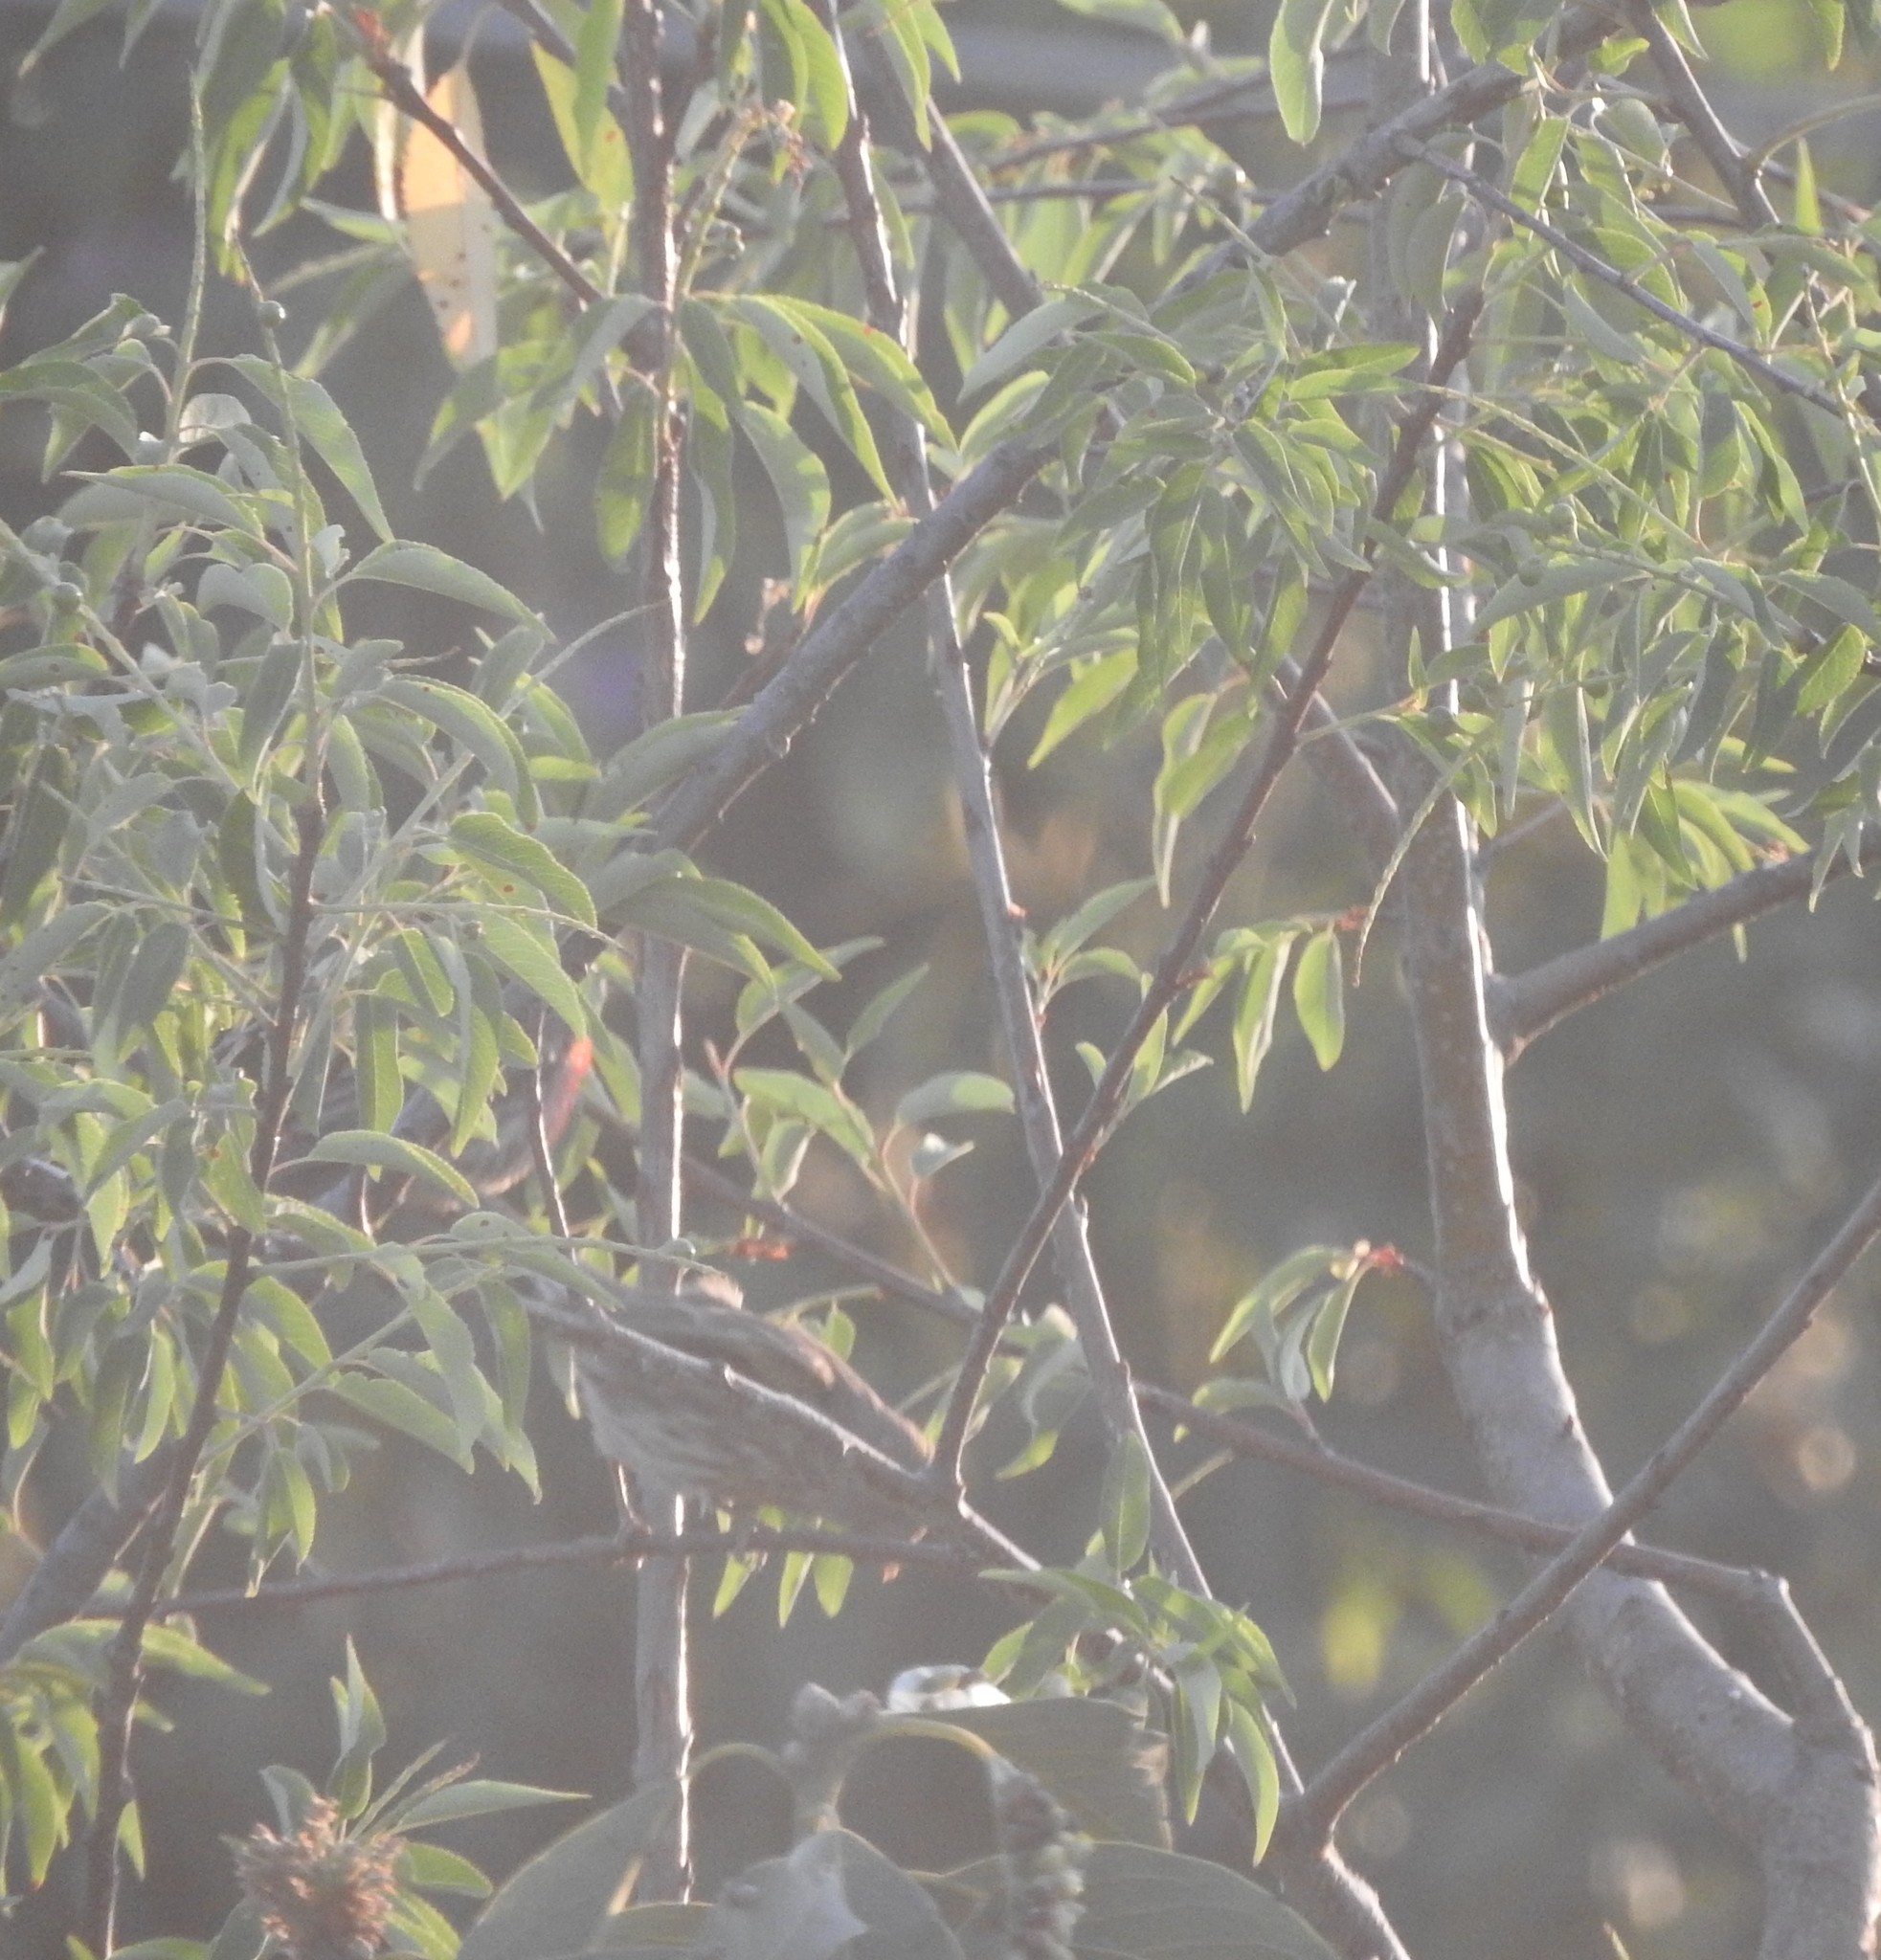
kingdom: Animalia
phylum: Chordata
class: Aves
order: Passeriformes
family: Fringillidae
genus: Haemorhous
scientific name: Haemorhous mexicanus
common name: House finch
